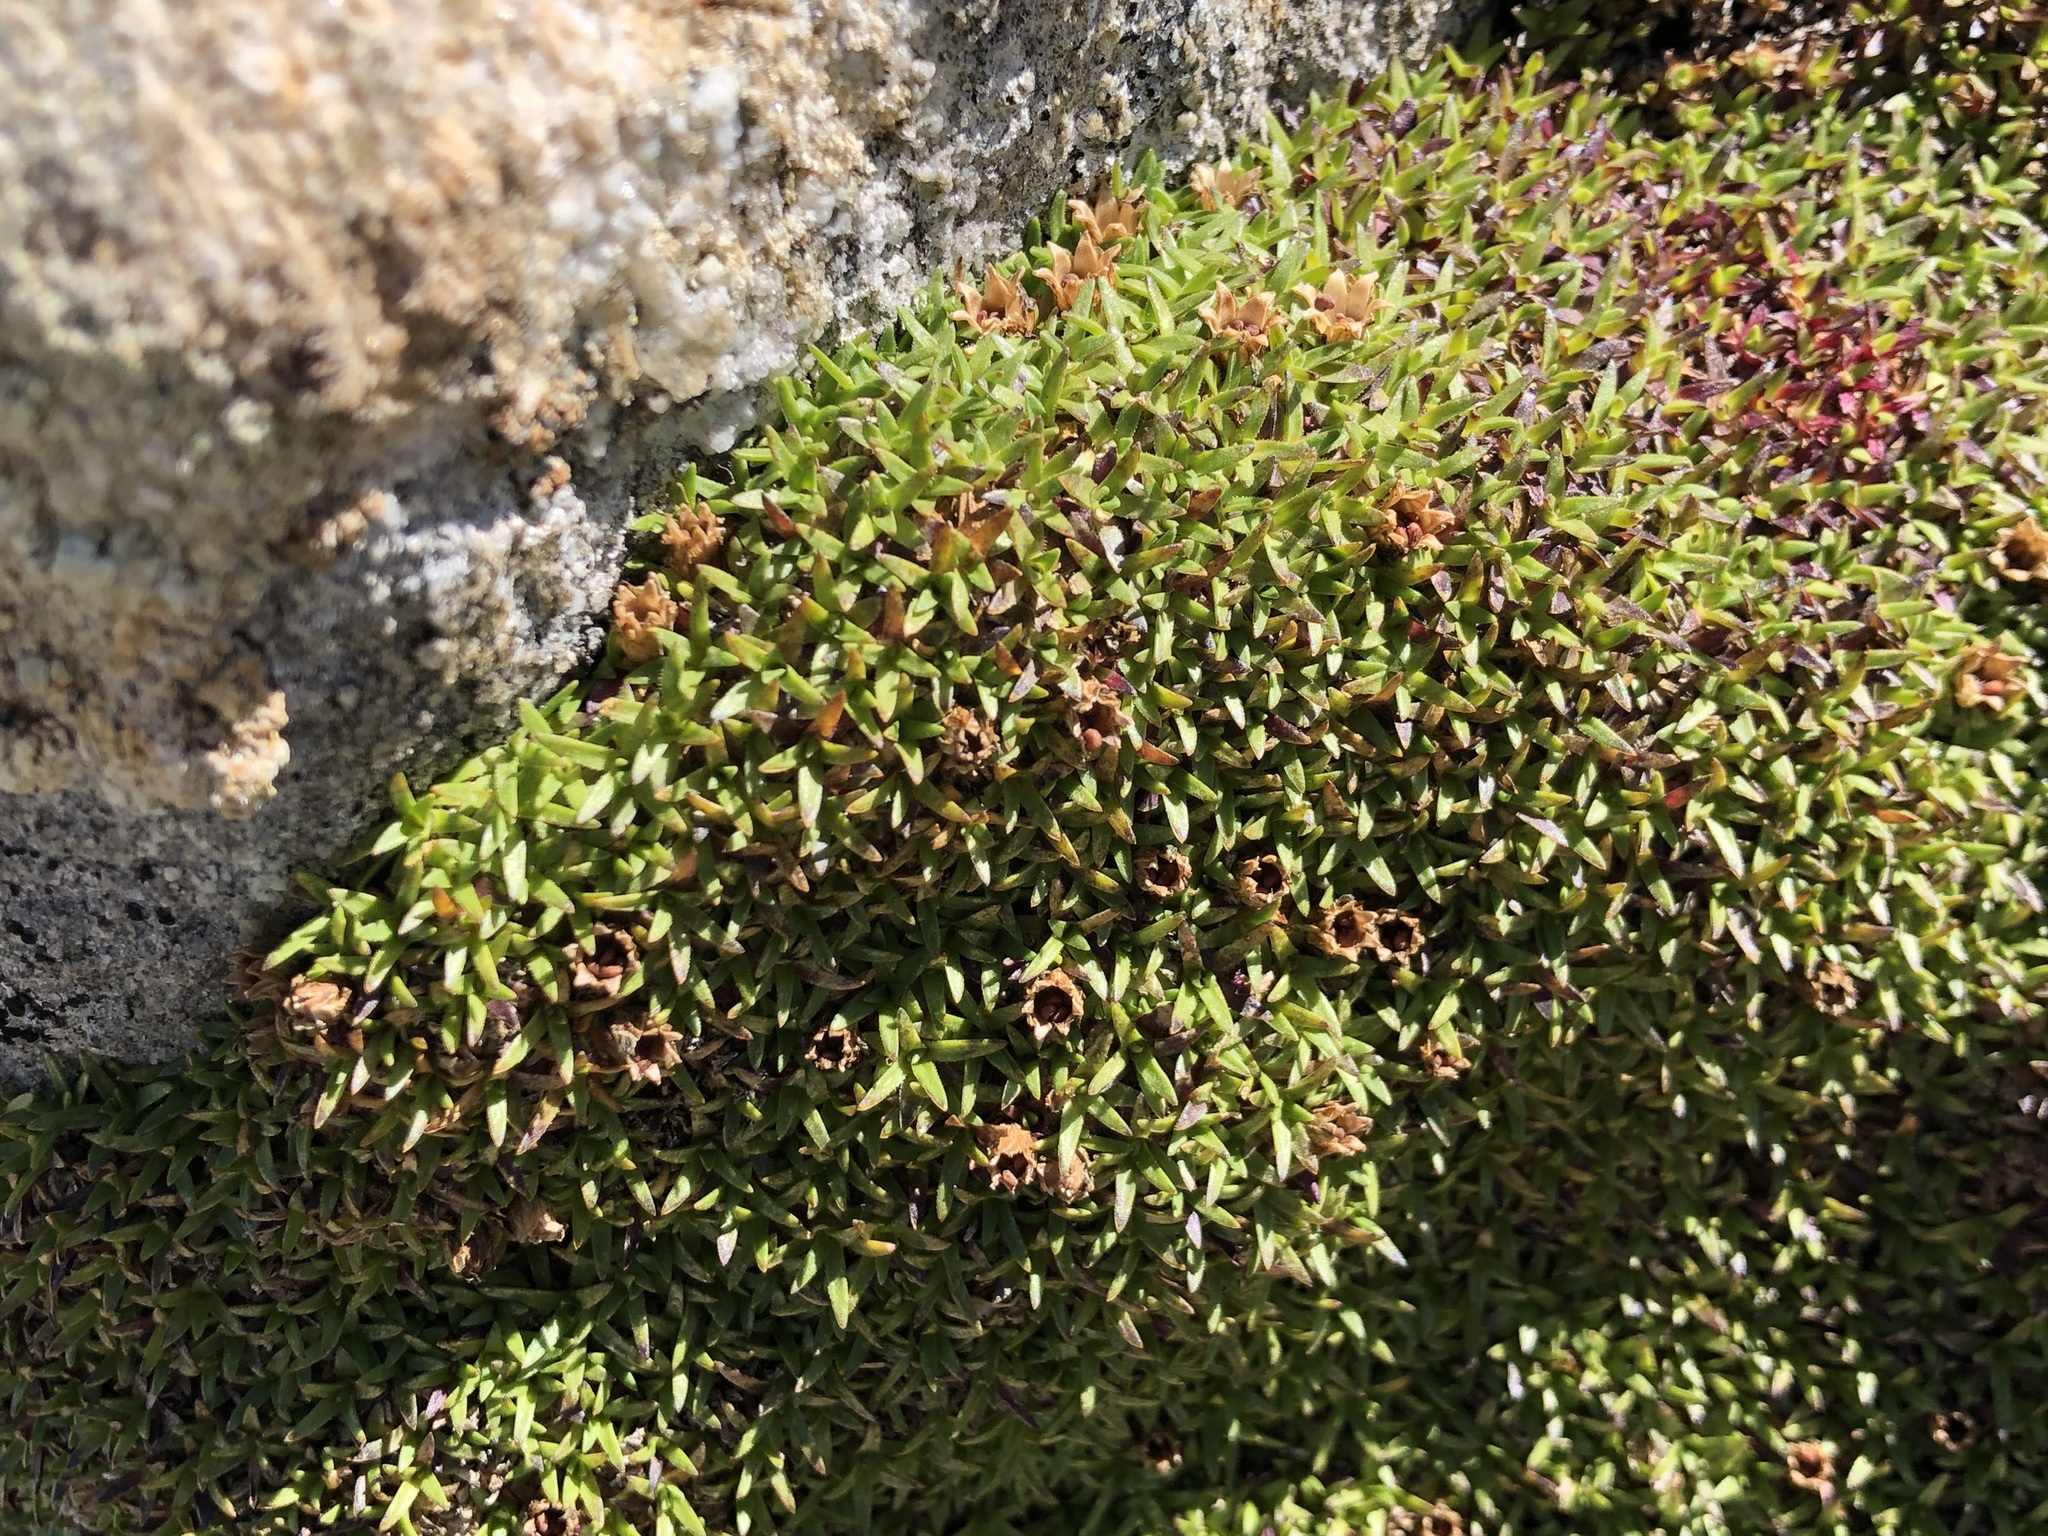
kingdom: Plantae
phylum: Tracheophyta
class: Magnoliopsida
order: Caryophyllales
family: Caryophyllaceae
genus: Silene
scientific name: Silene acaulis
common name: Moss campion
